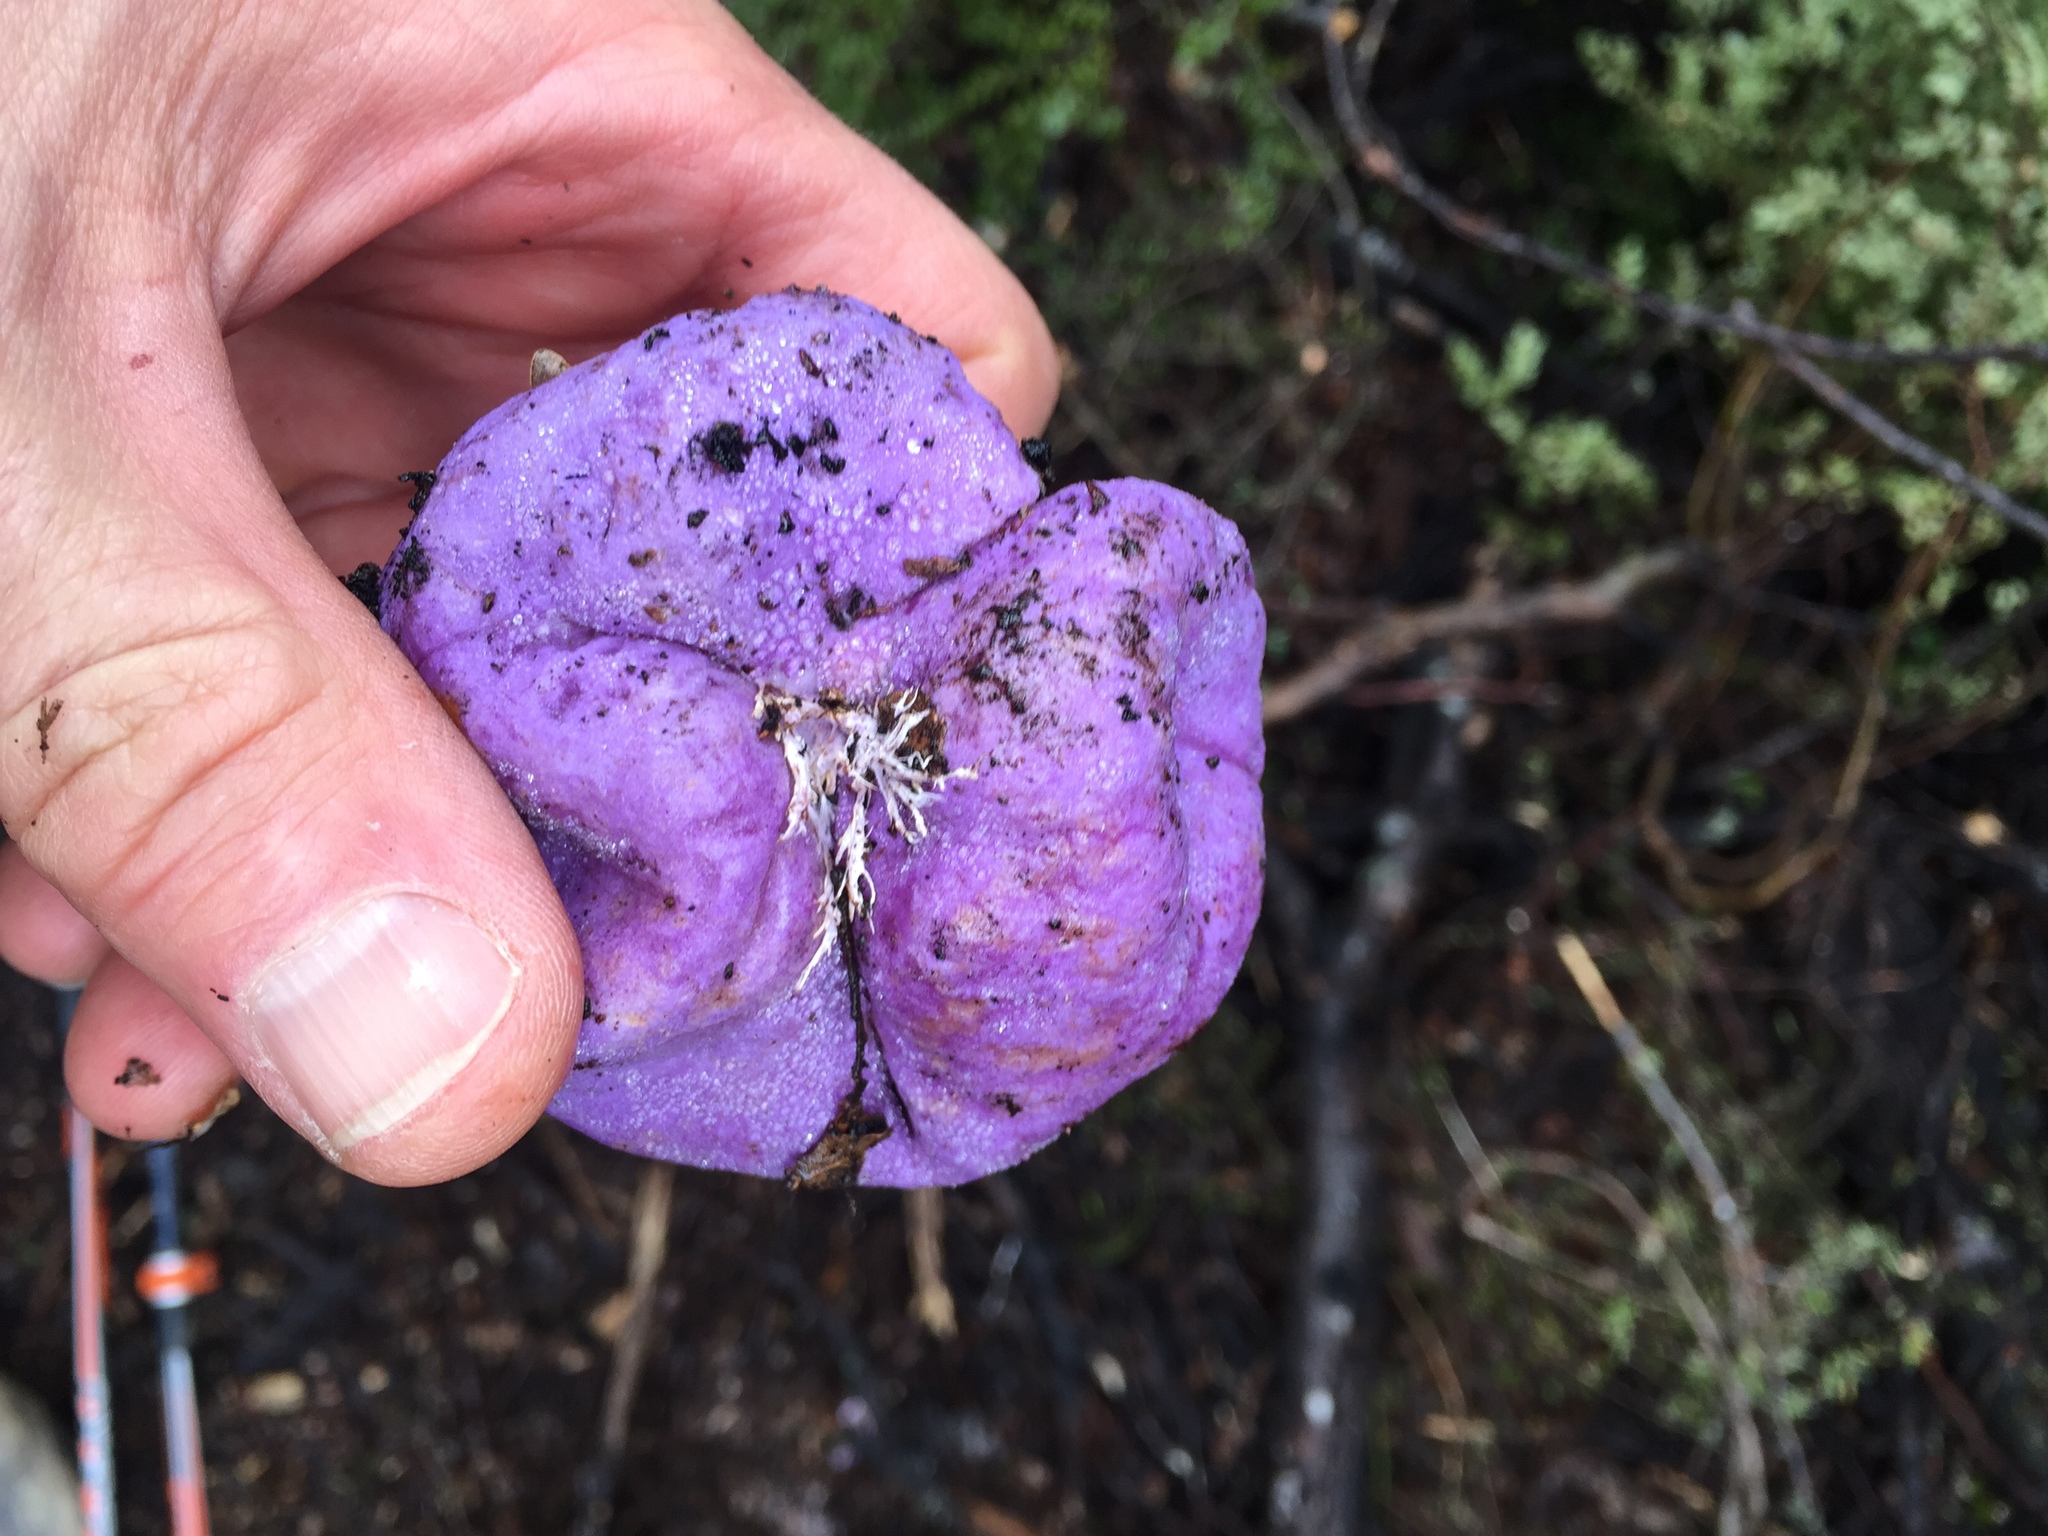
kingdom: Fungi
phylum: Basidiomycota
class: Agaricomycetes
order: Hysterangiales
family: Gallaceaceae
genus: Gallacea
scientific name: Gallacea scleroderma
